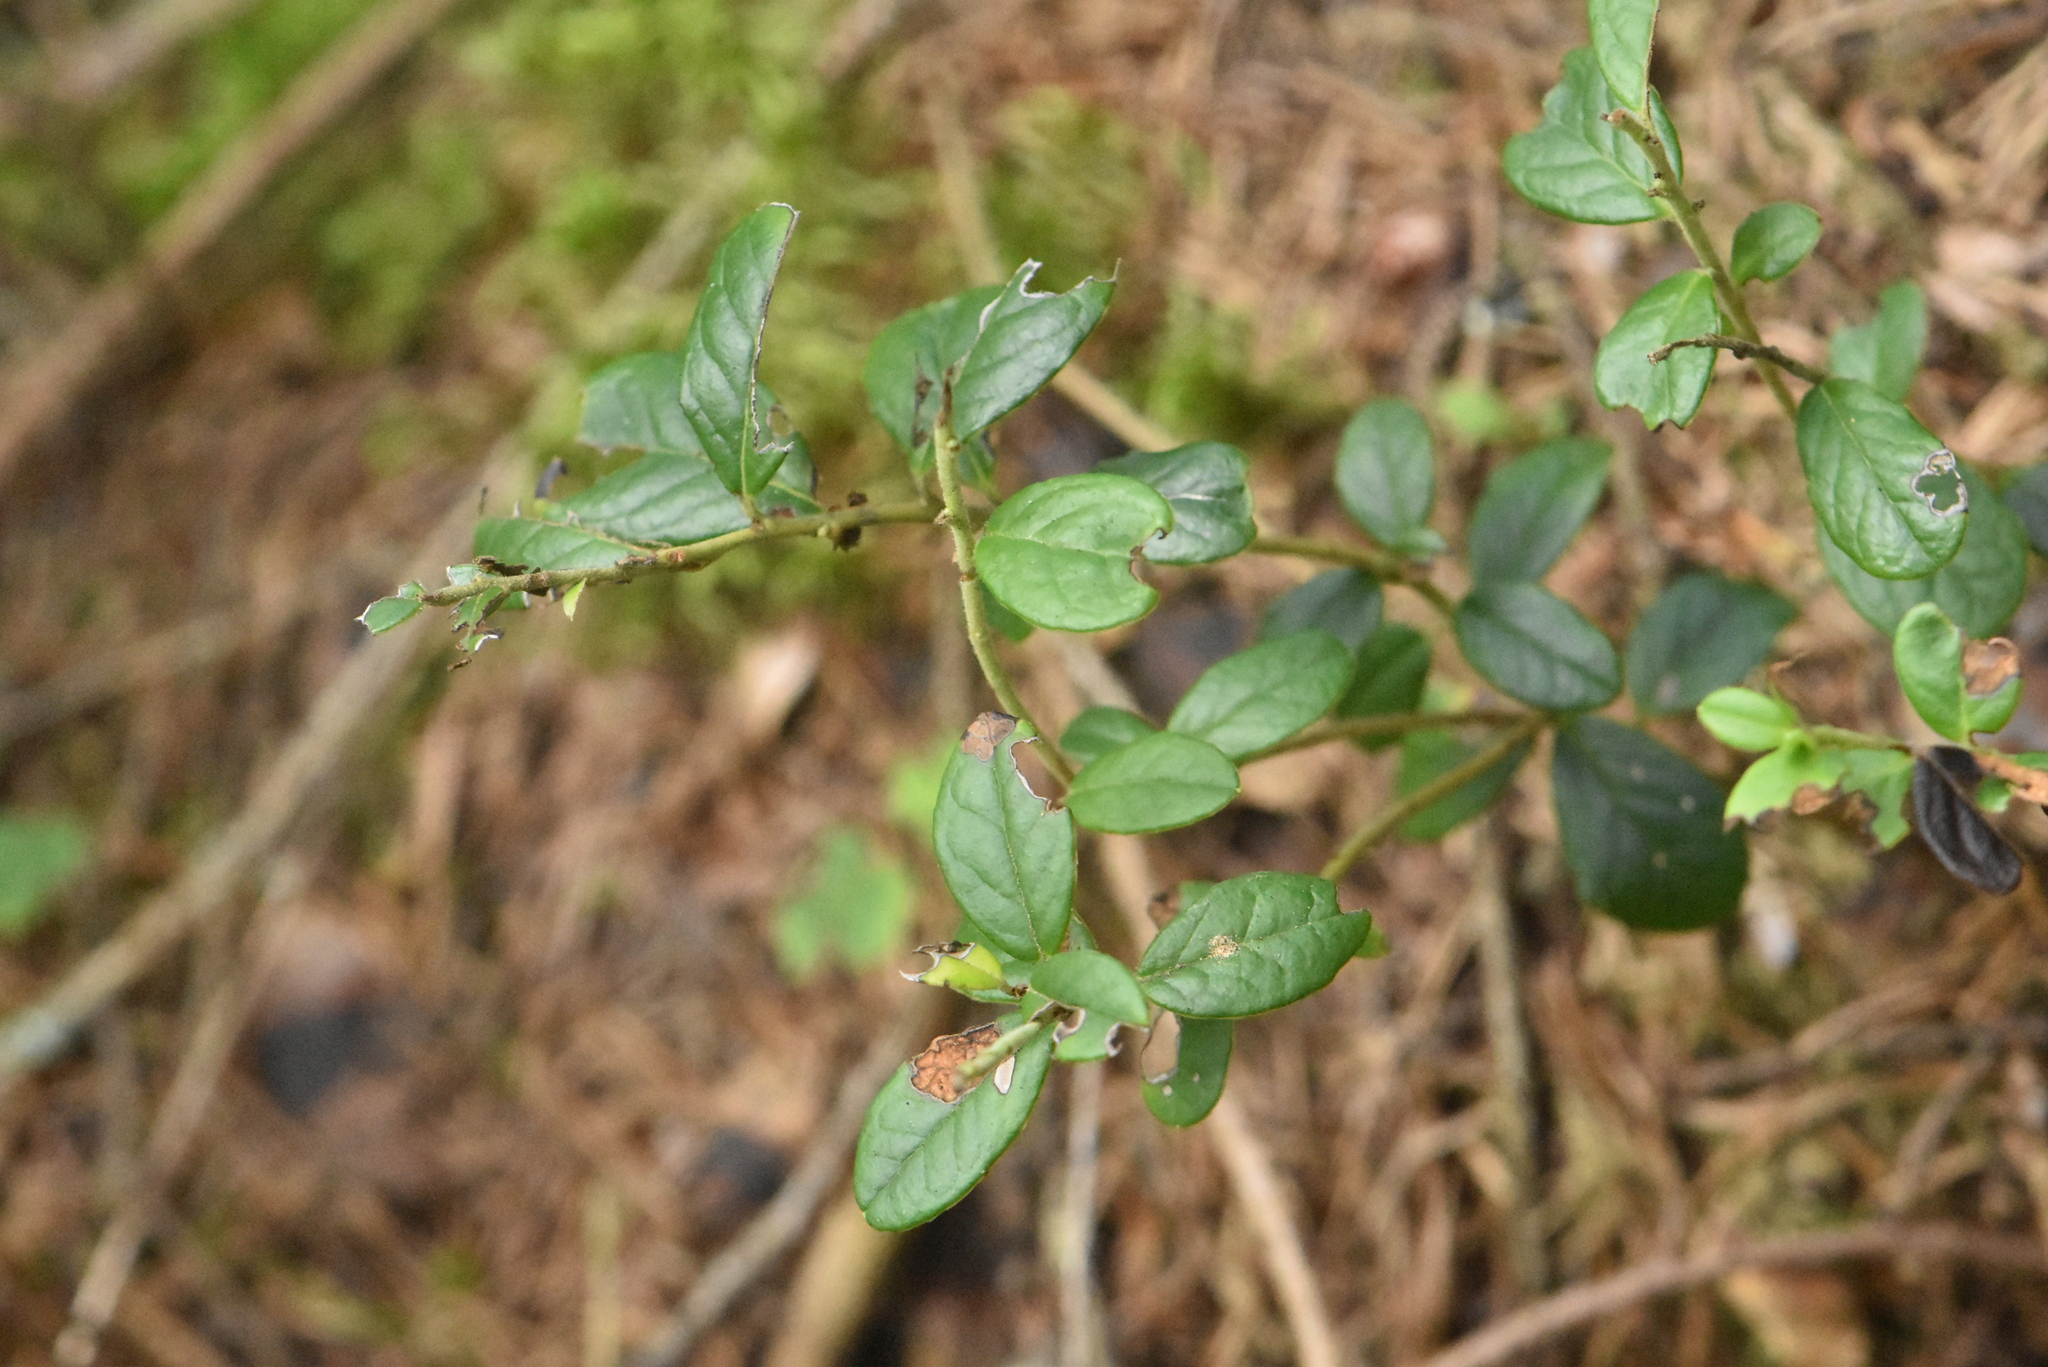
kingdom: Plantae
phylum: Tracheophyta
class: Magnoliopsida
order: Ericales
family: Ericaceae
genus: Vaccinium
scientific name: Vaccinium vitis-idaea
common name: Cowberry
